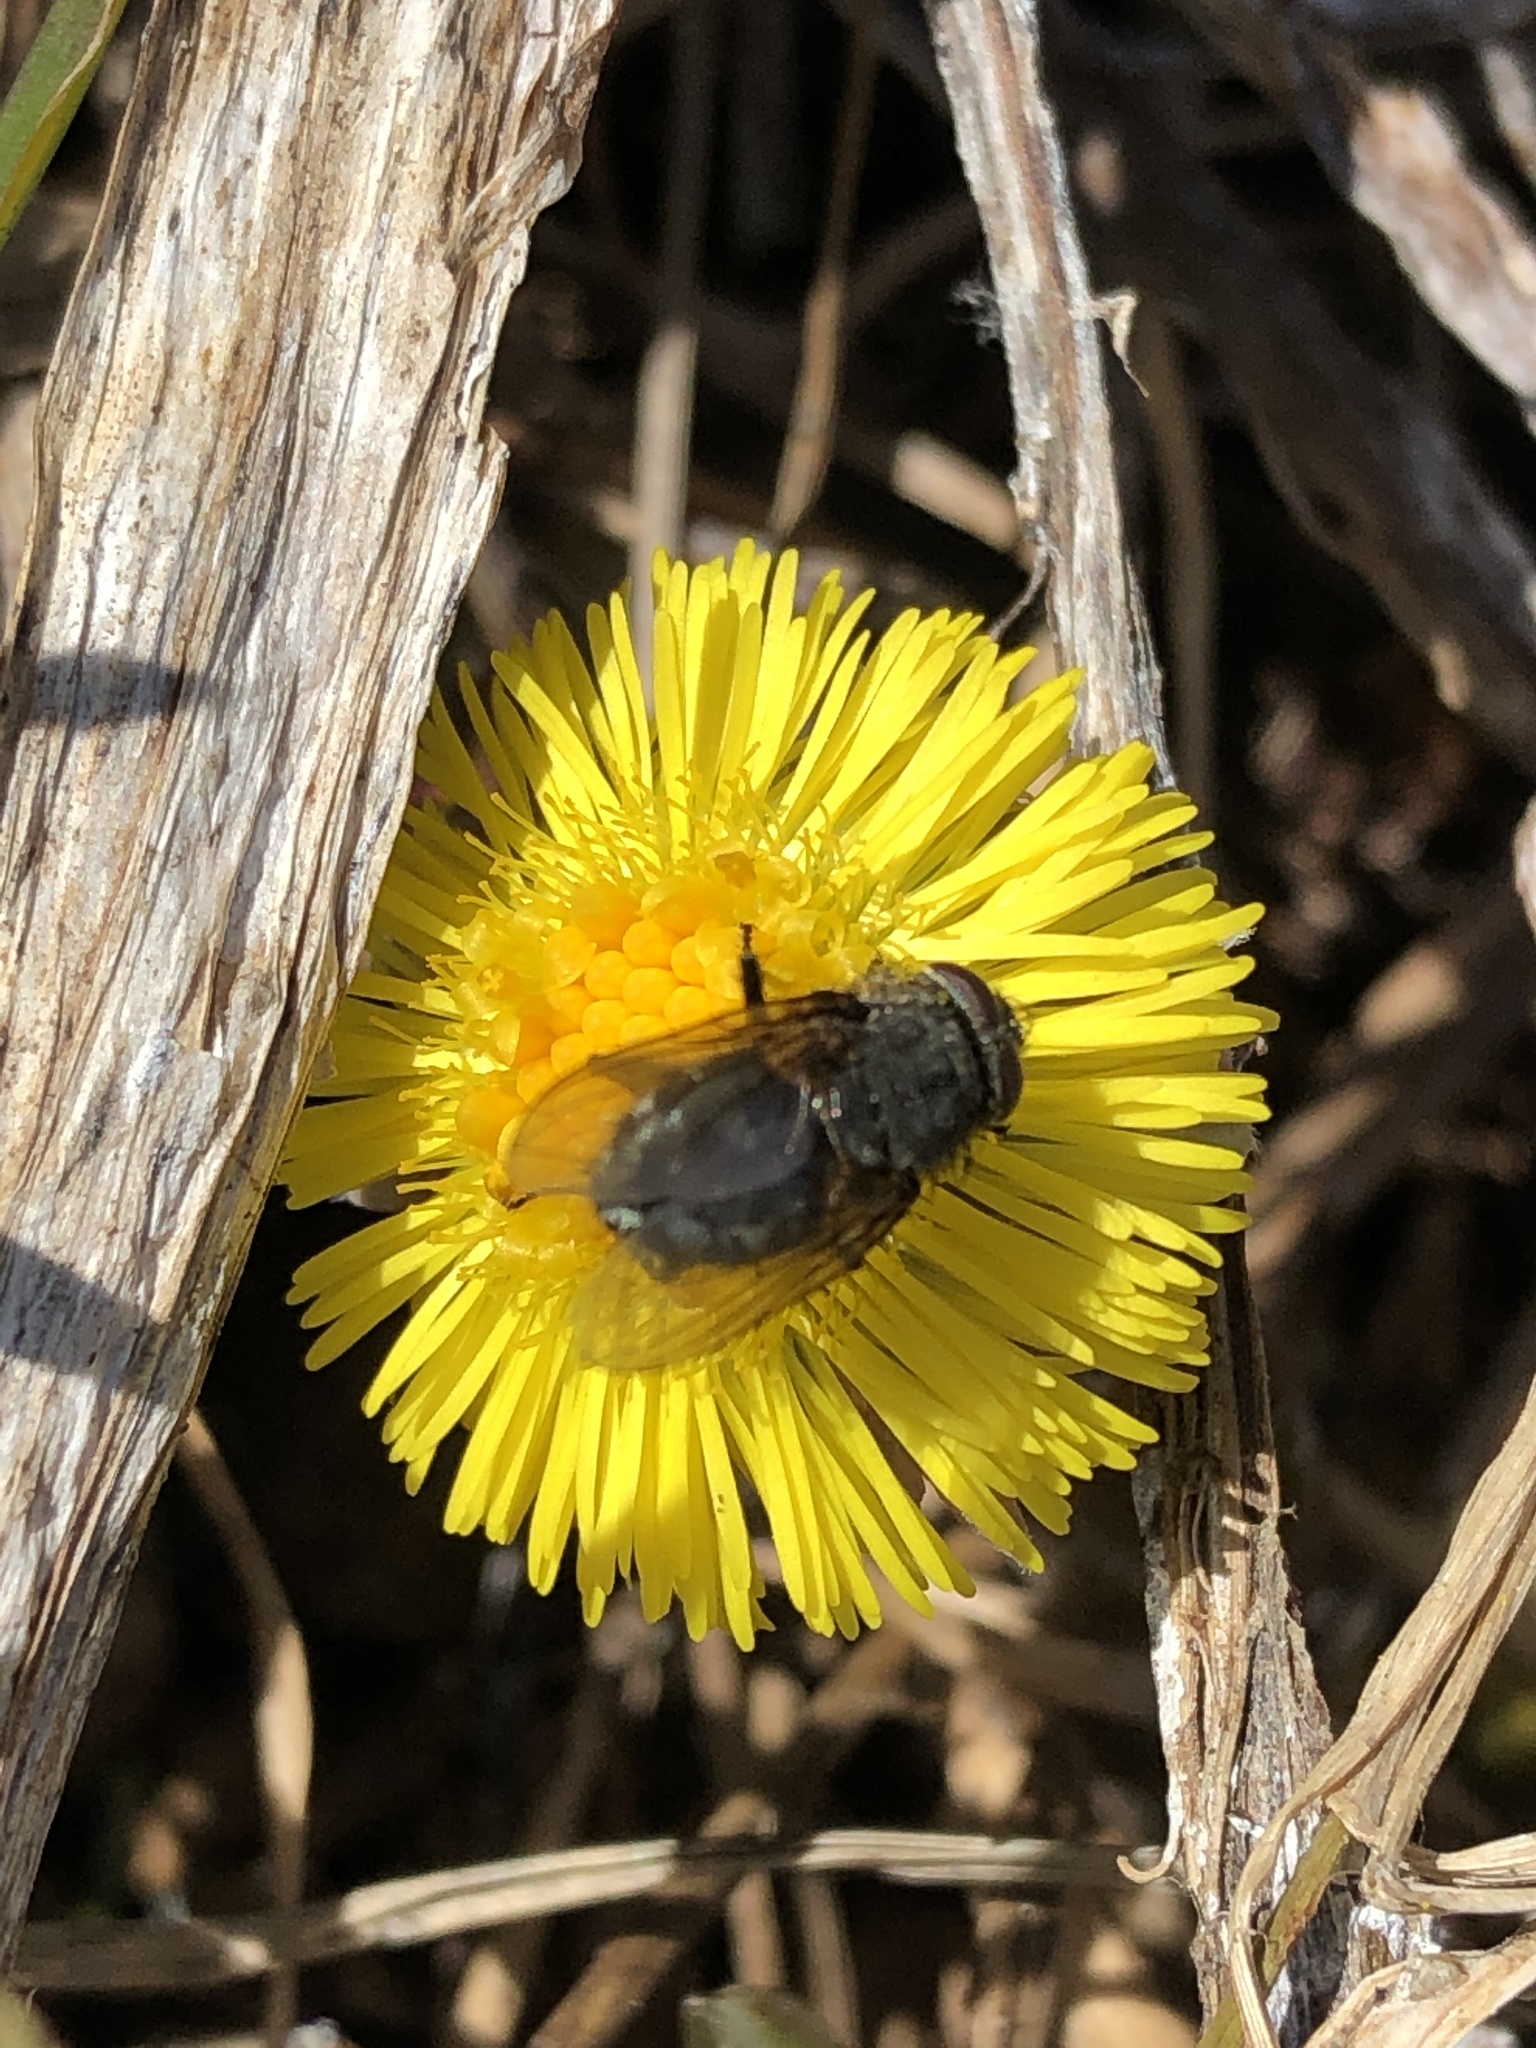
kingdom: Animalia
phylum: Arthropoda
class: Insecta
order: Diptera
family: Polleniidae
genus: Pollenia
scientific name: Pollenia
